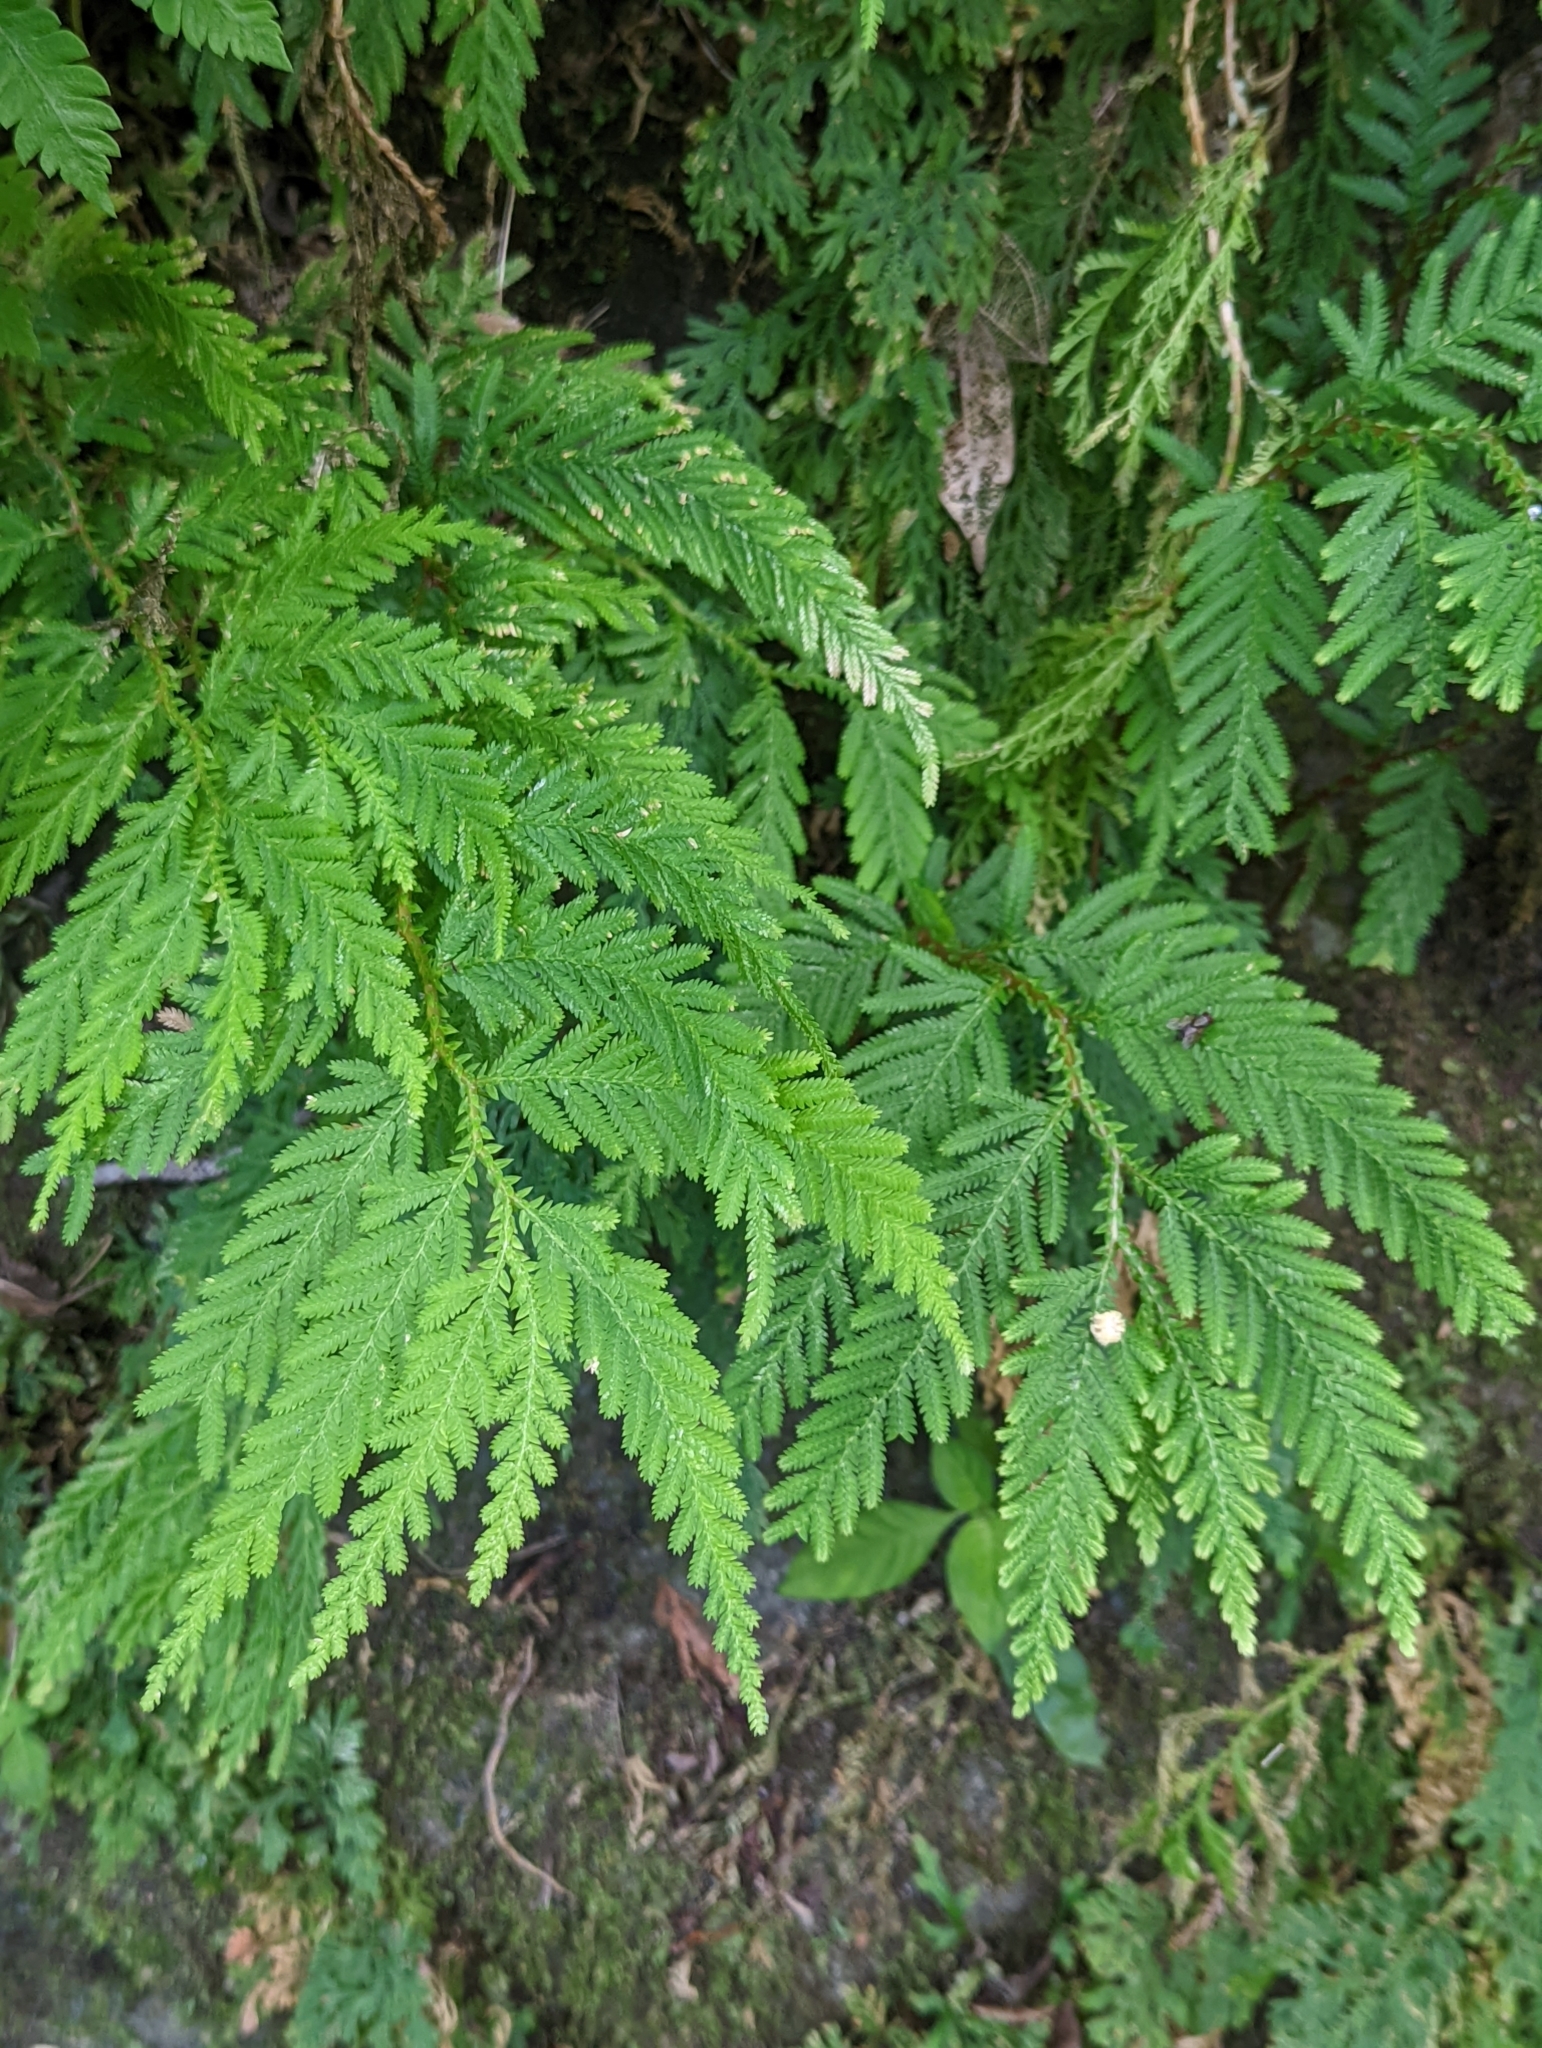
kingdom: Plantae
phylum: Tracheophyta
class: Lycopodiopsida
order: Selaginellales
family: Selaginellaceae
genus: Selaginella
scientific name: Selaginella delicatula
